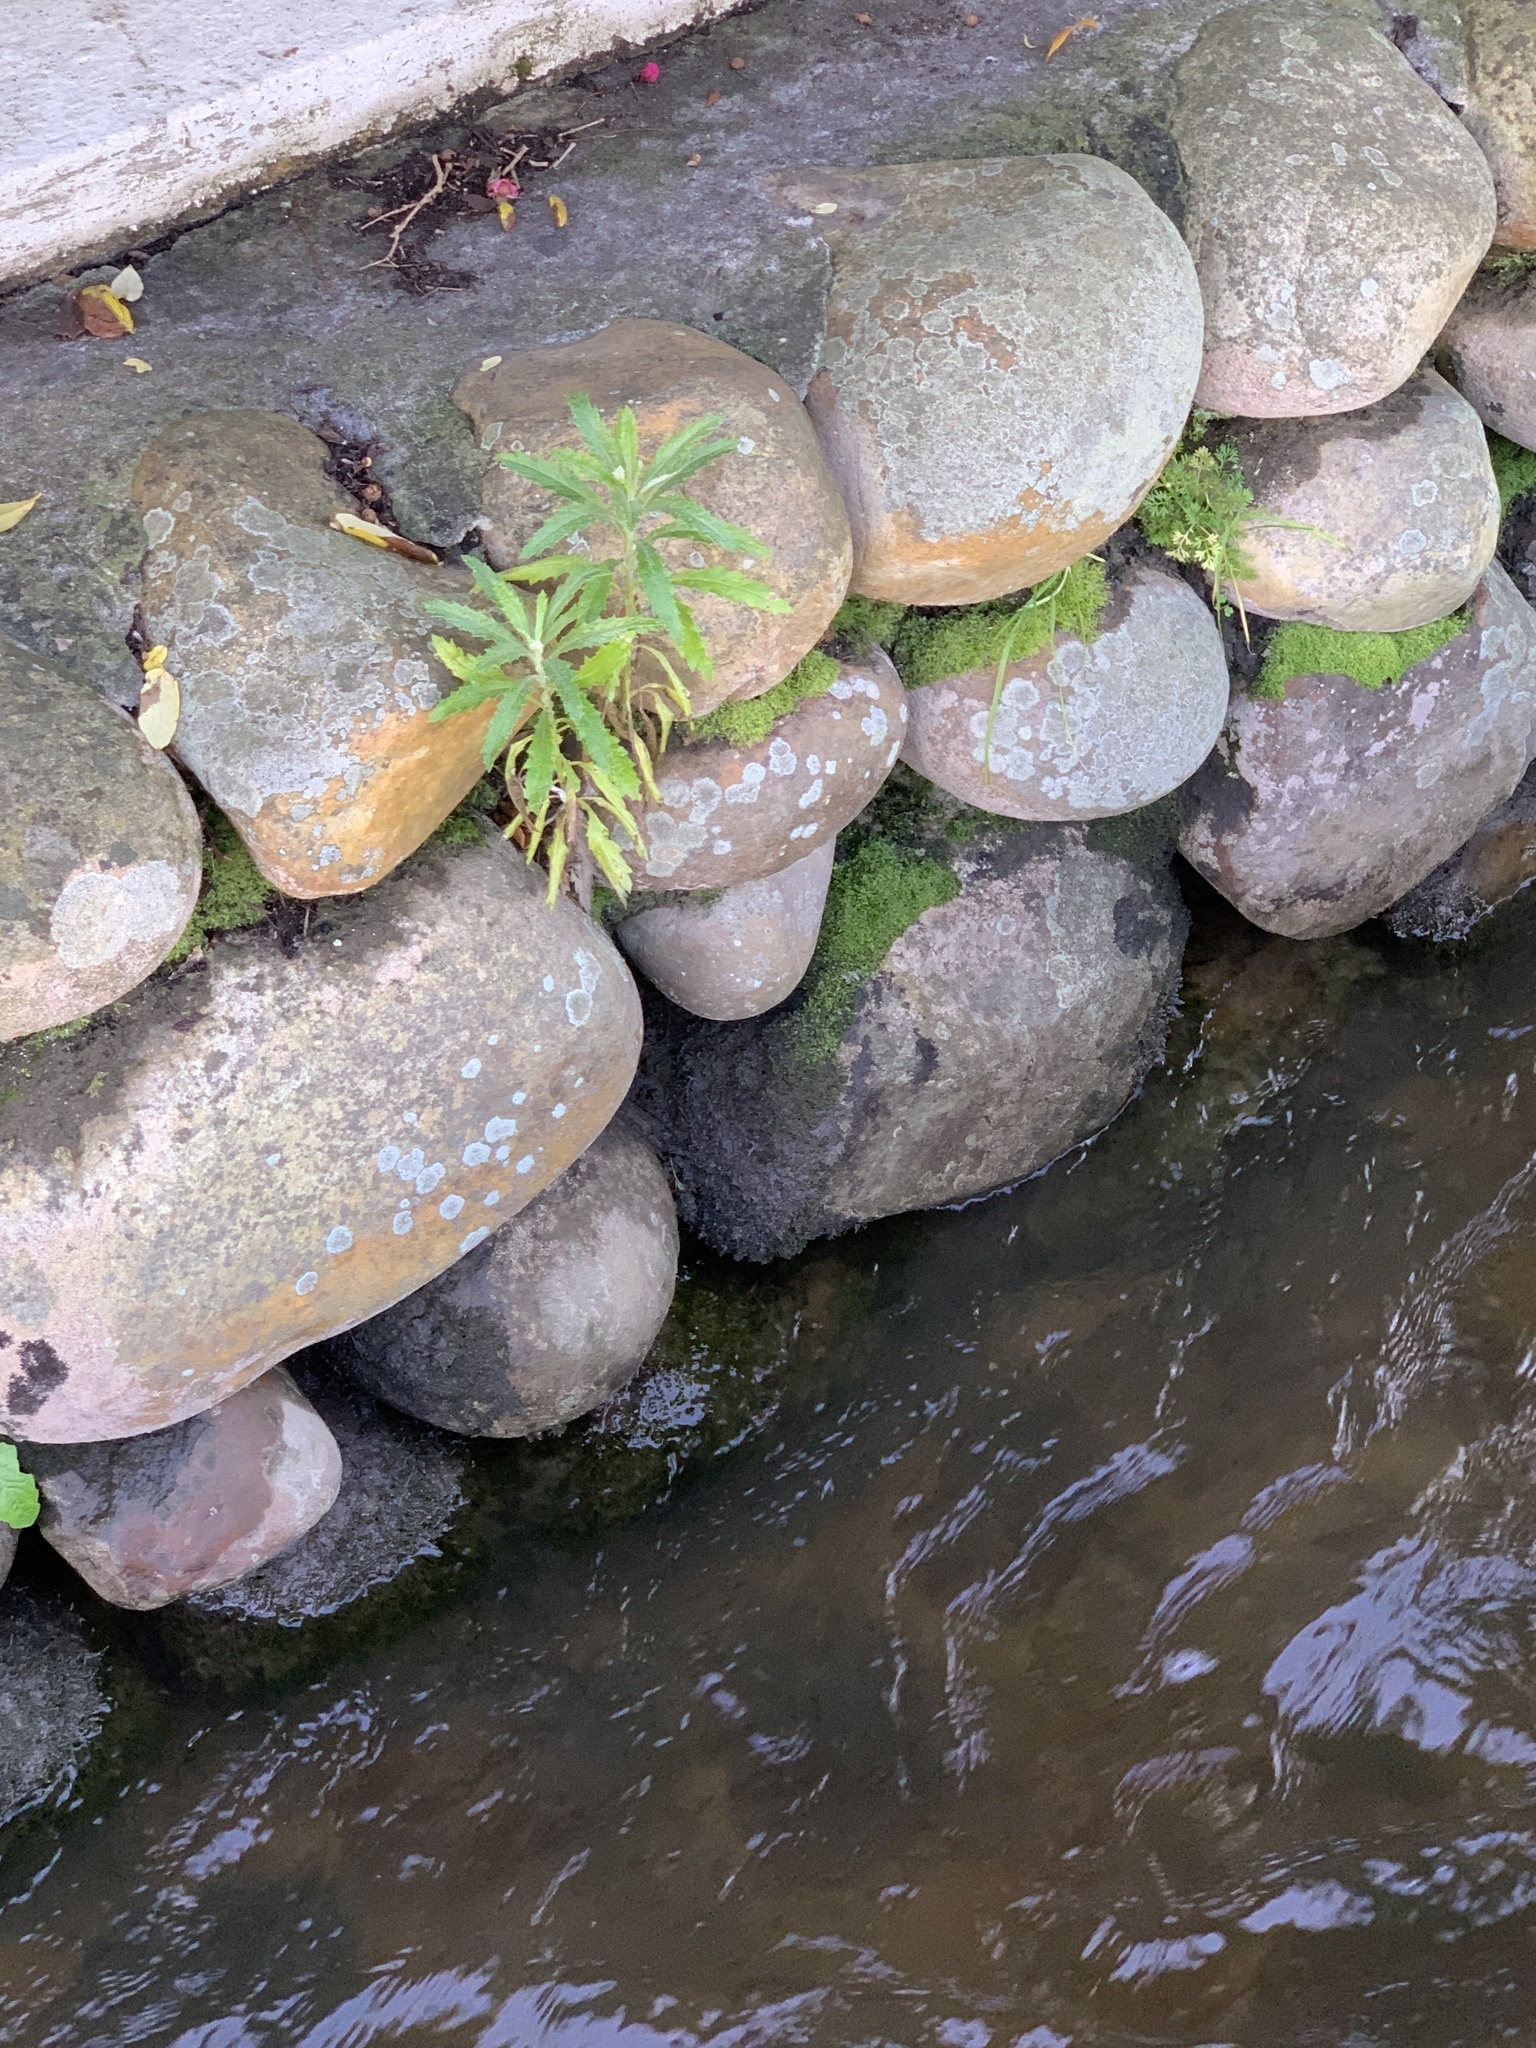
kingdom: Plantae
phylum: Tracheophyta
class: Magnoliopsida
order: Asterales
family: Asteraceae
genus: Senecio
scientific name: Senecio pterophorus
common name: Shoddy ragwort
